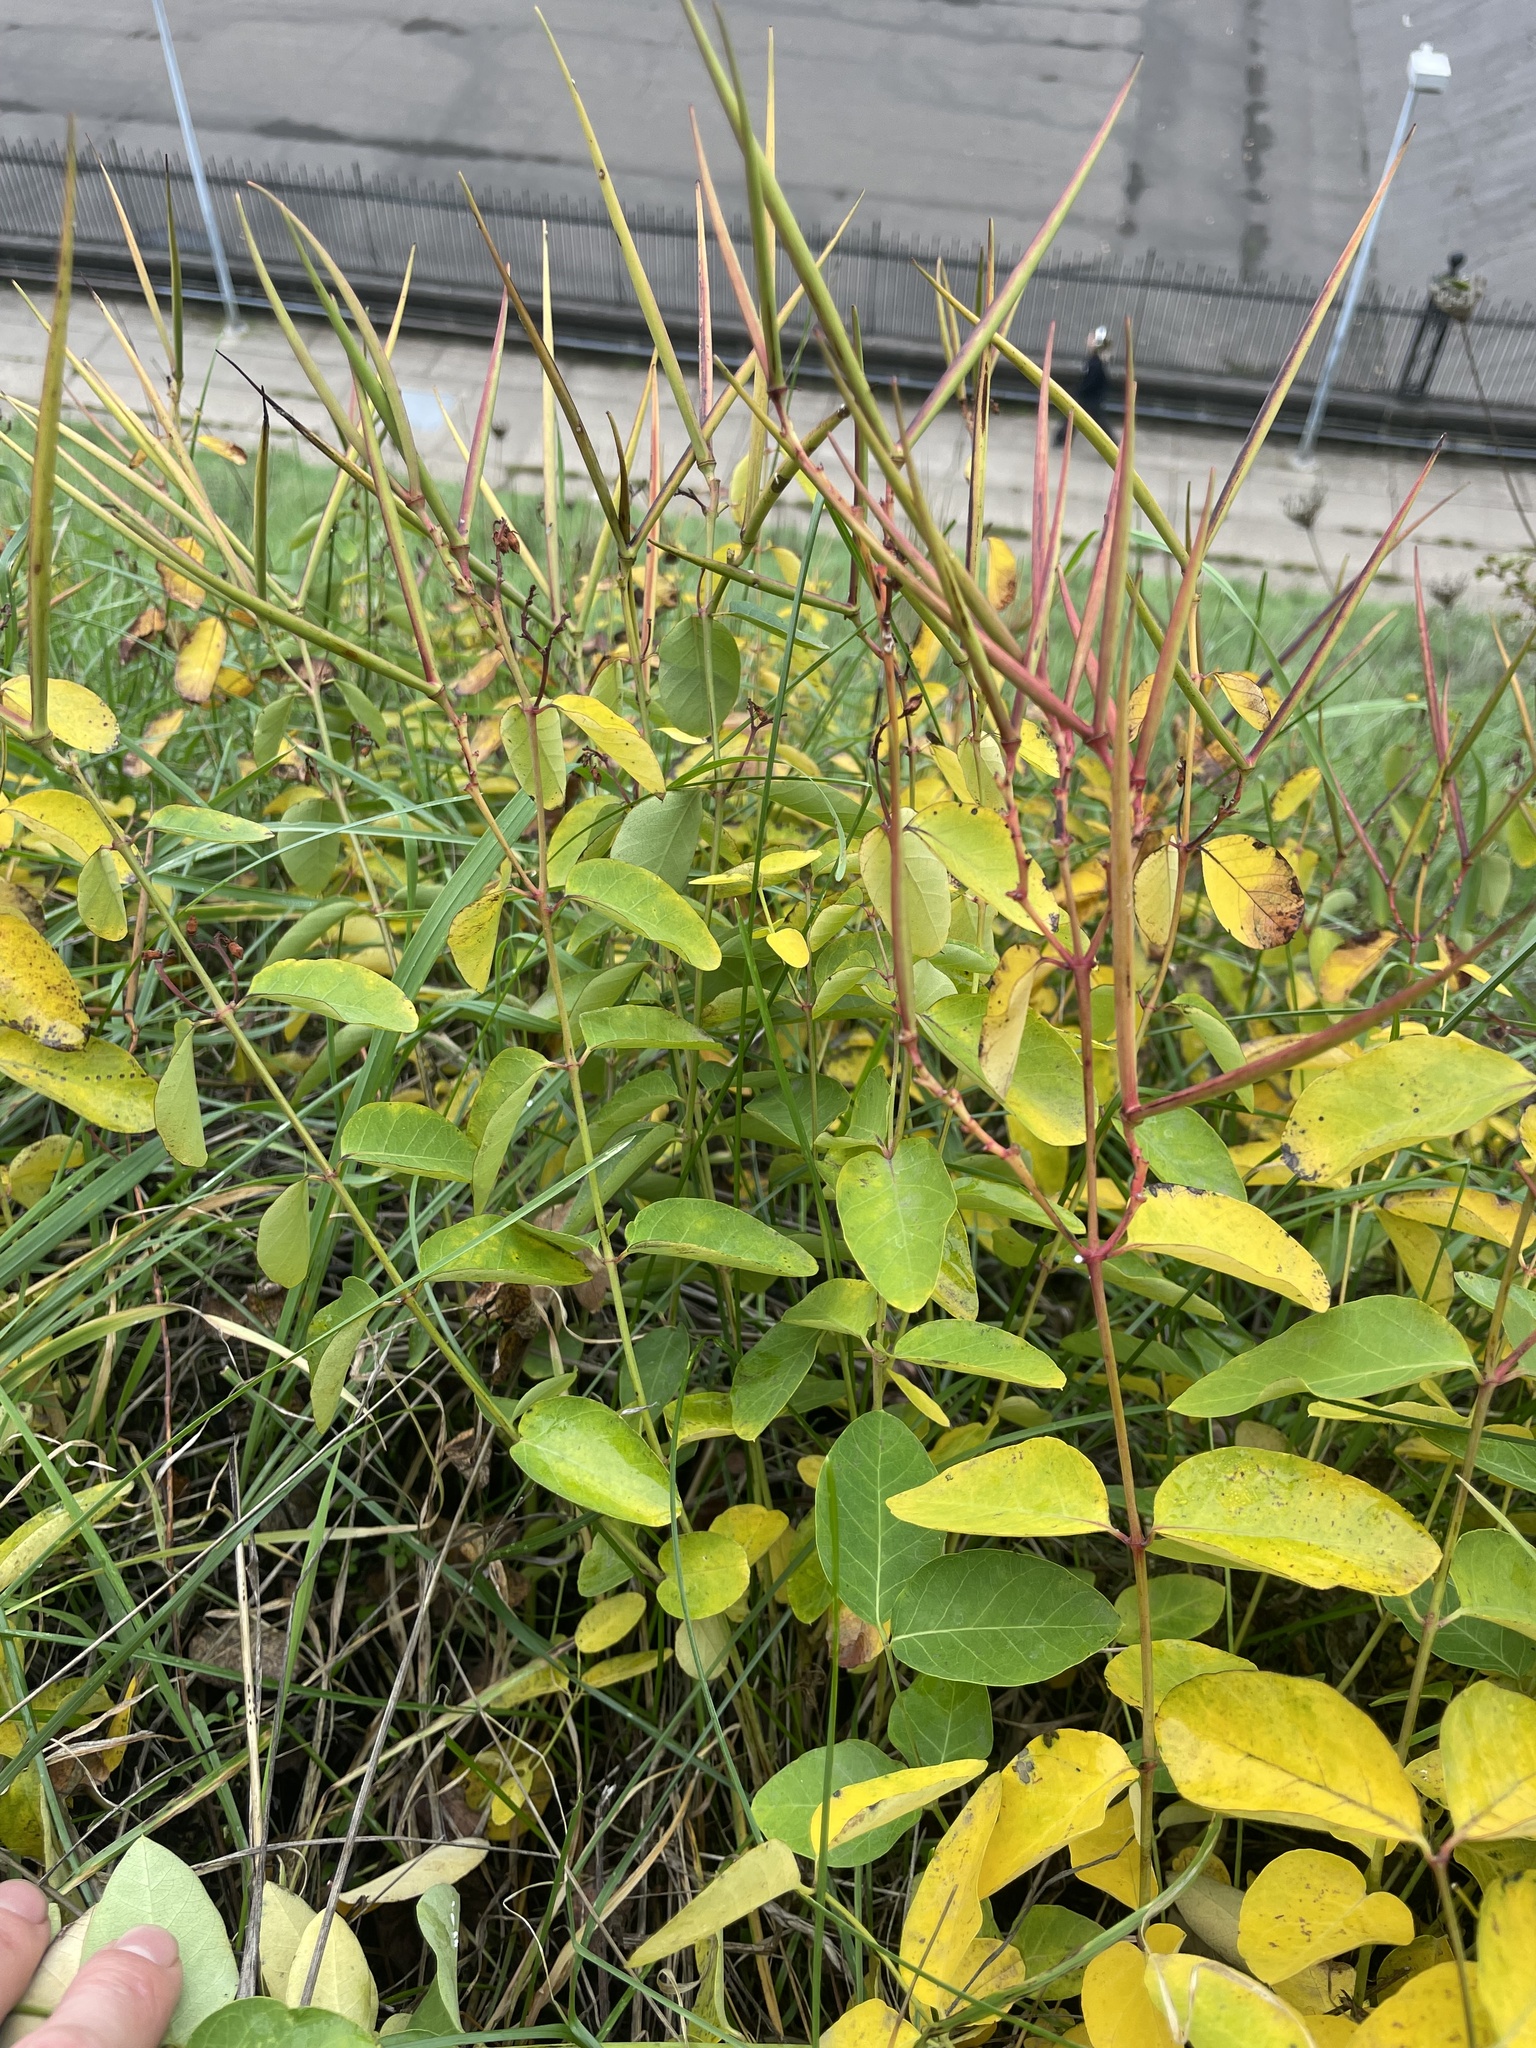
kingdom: Plantae
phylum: Tracheophyta
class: Magnoliopsida
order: Gentianales
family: Apocynaceae
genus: Apocynum
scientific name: Apocynum androsaemifolium
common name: Spreading dogbane
